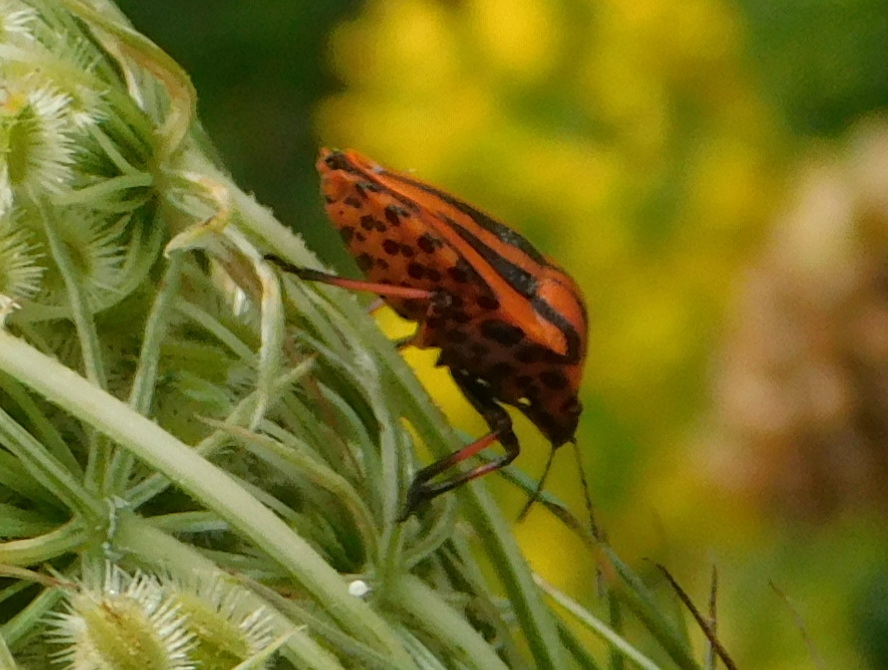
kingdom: Animalia
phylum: Arthropoda
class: Insecta
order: Hemiptera
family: Pentatomidae
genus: Graphosoma
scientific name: Graphosoma italicum
